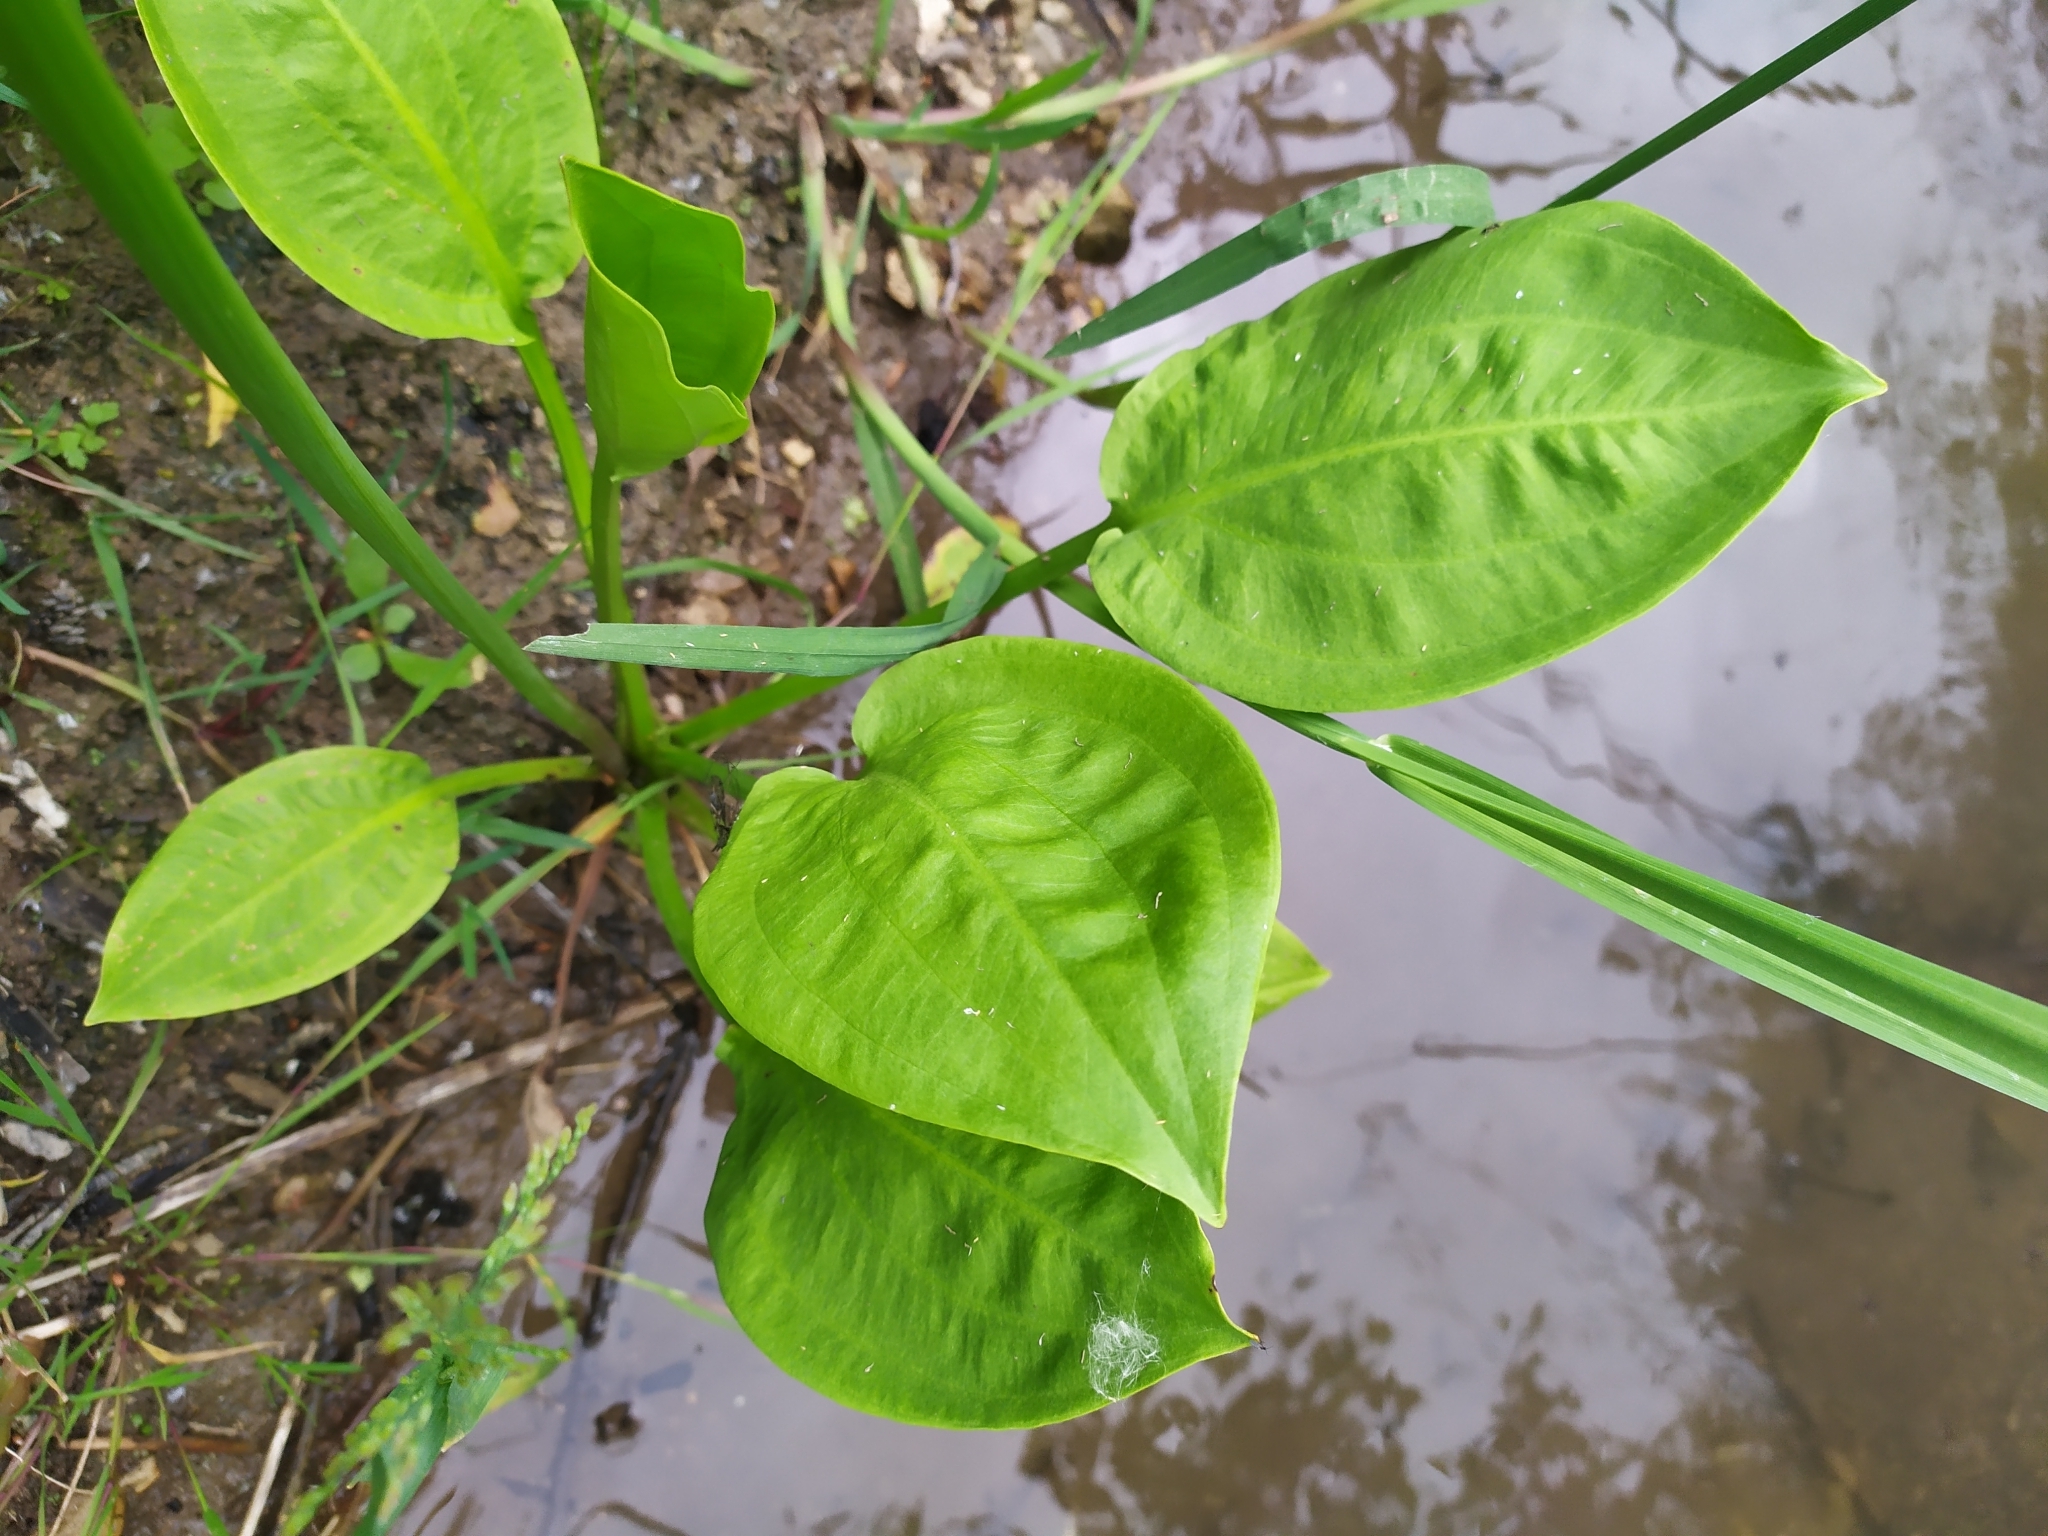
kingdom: Plantae
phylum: Tracheophyta
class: Liliopsida
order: Alismatales
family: Alismataceae
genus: Alisma
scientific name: Alisma plantago-aquatica
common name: Water-plantain
